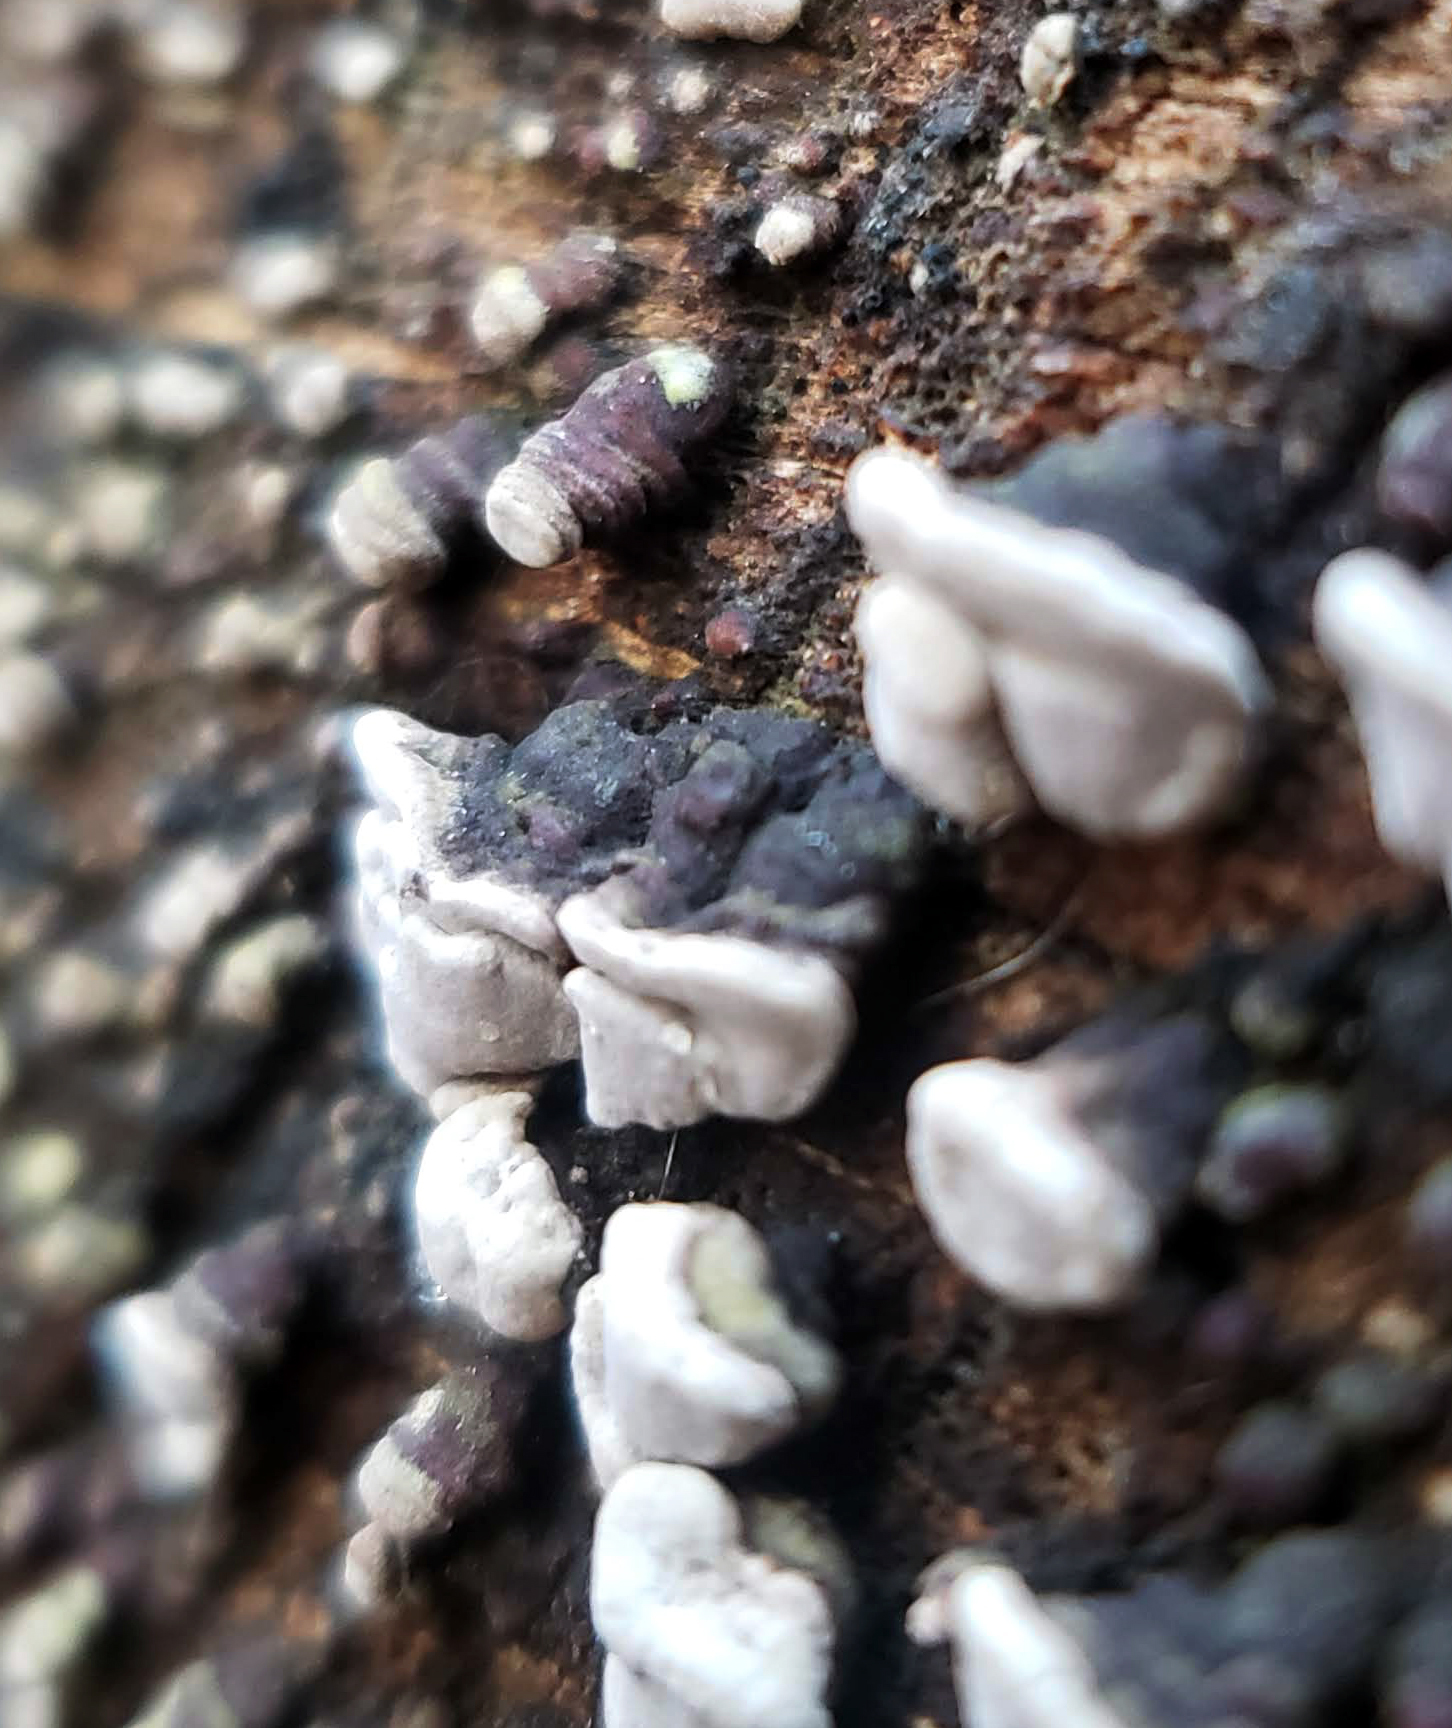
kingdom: Fungi
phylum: Basidiomycota
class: Agaricomycetes
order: Russulales
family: Stereaceae
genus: Xylobolus
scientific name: Xylobolus frustulatus
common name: Ceramic parchment
